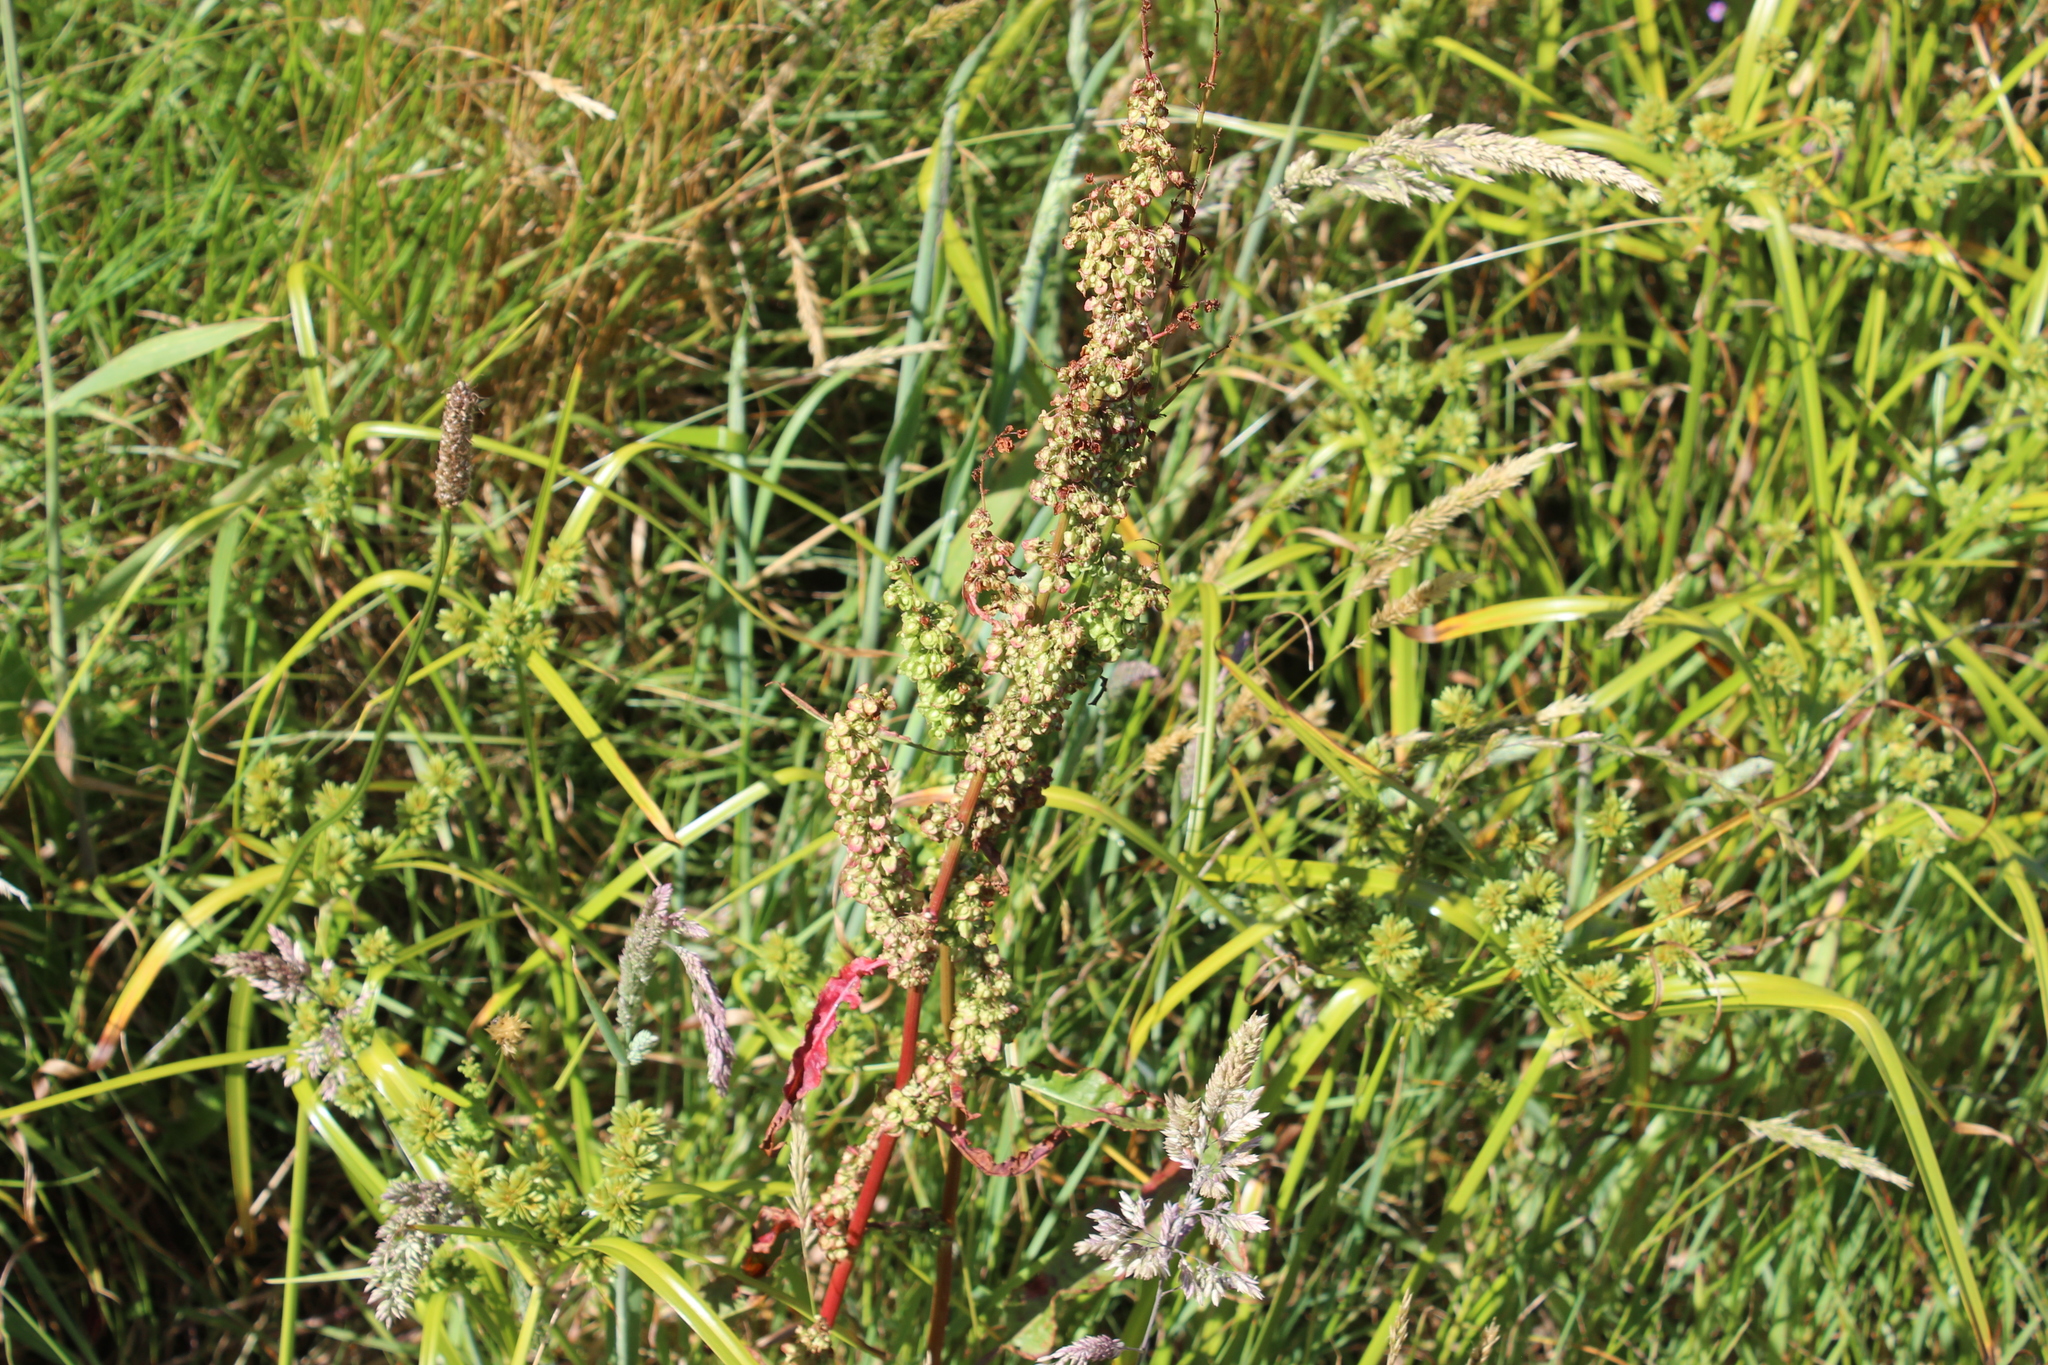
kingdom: Plantae
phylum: Tracheophyta
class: Magnoliopsida
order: Caryophyllales
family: Polygonaceae
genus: Rumex
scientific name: Rumex crispus
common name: Curled dock
